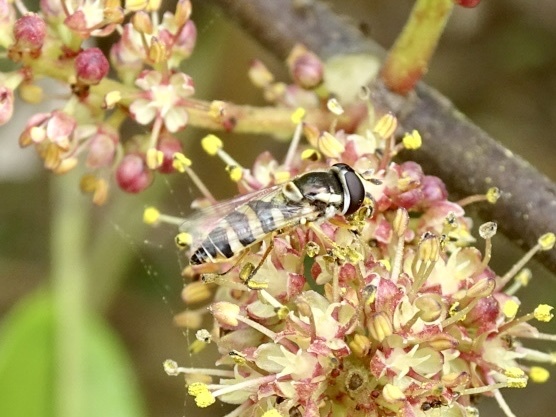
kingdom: Animalia
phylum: Arthropoda
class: Insecta
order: Diptera
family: Syrphidae
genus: Ischiodon
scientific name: Ischiodon scutellaris
